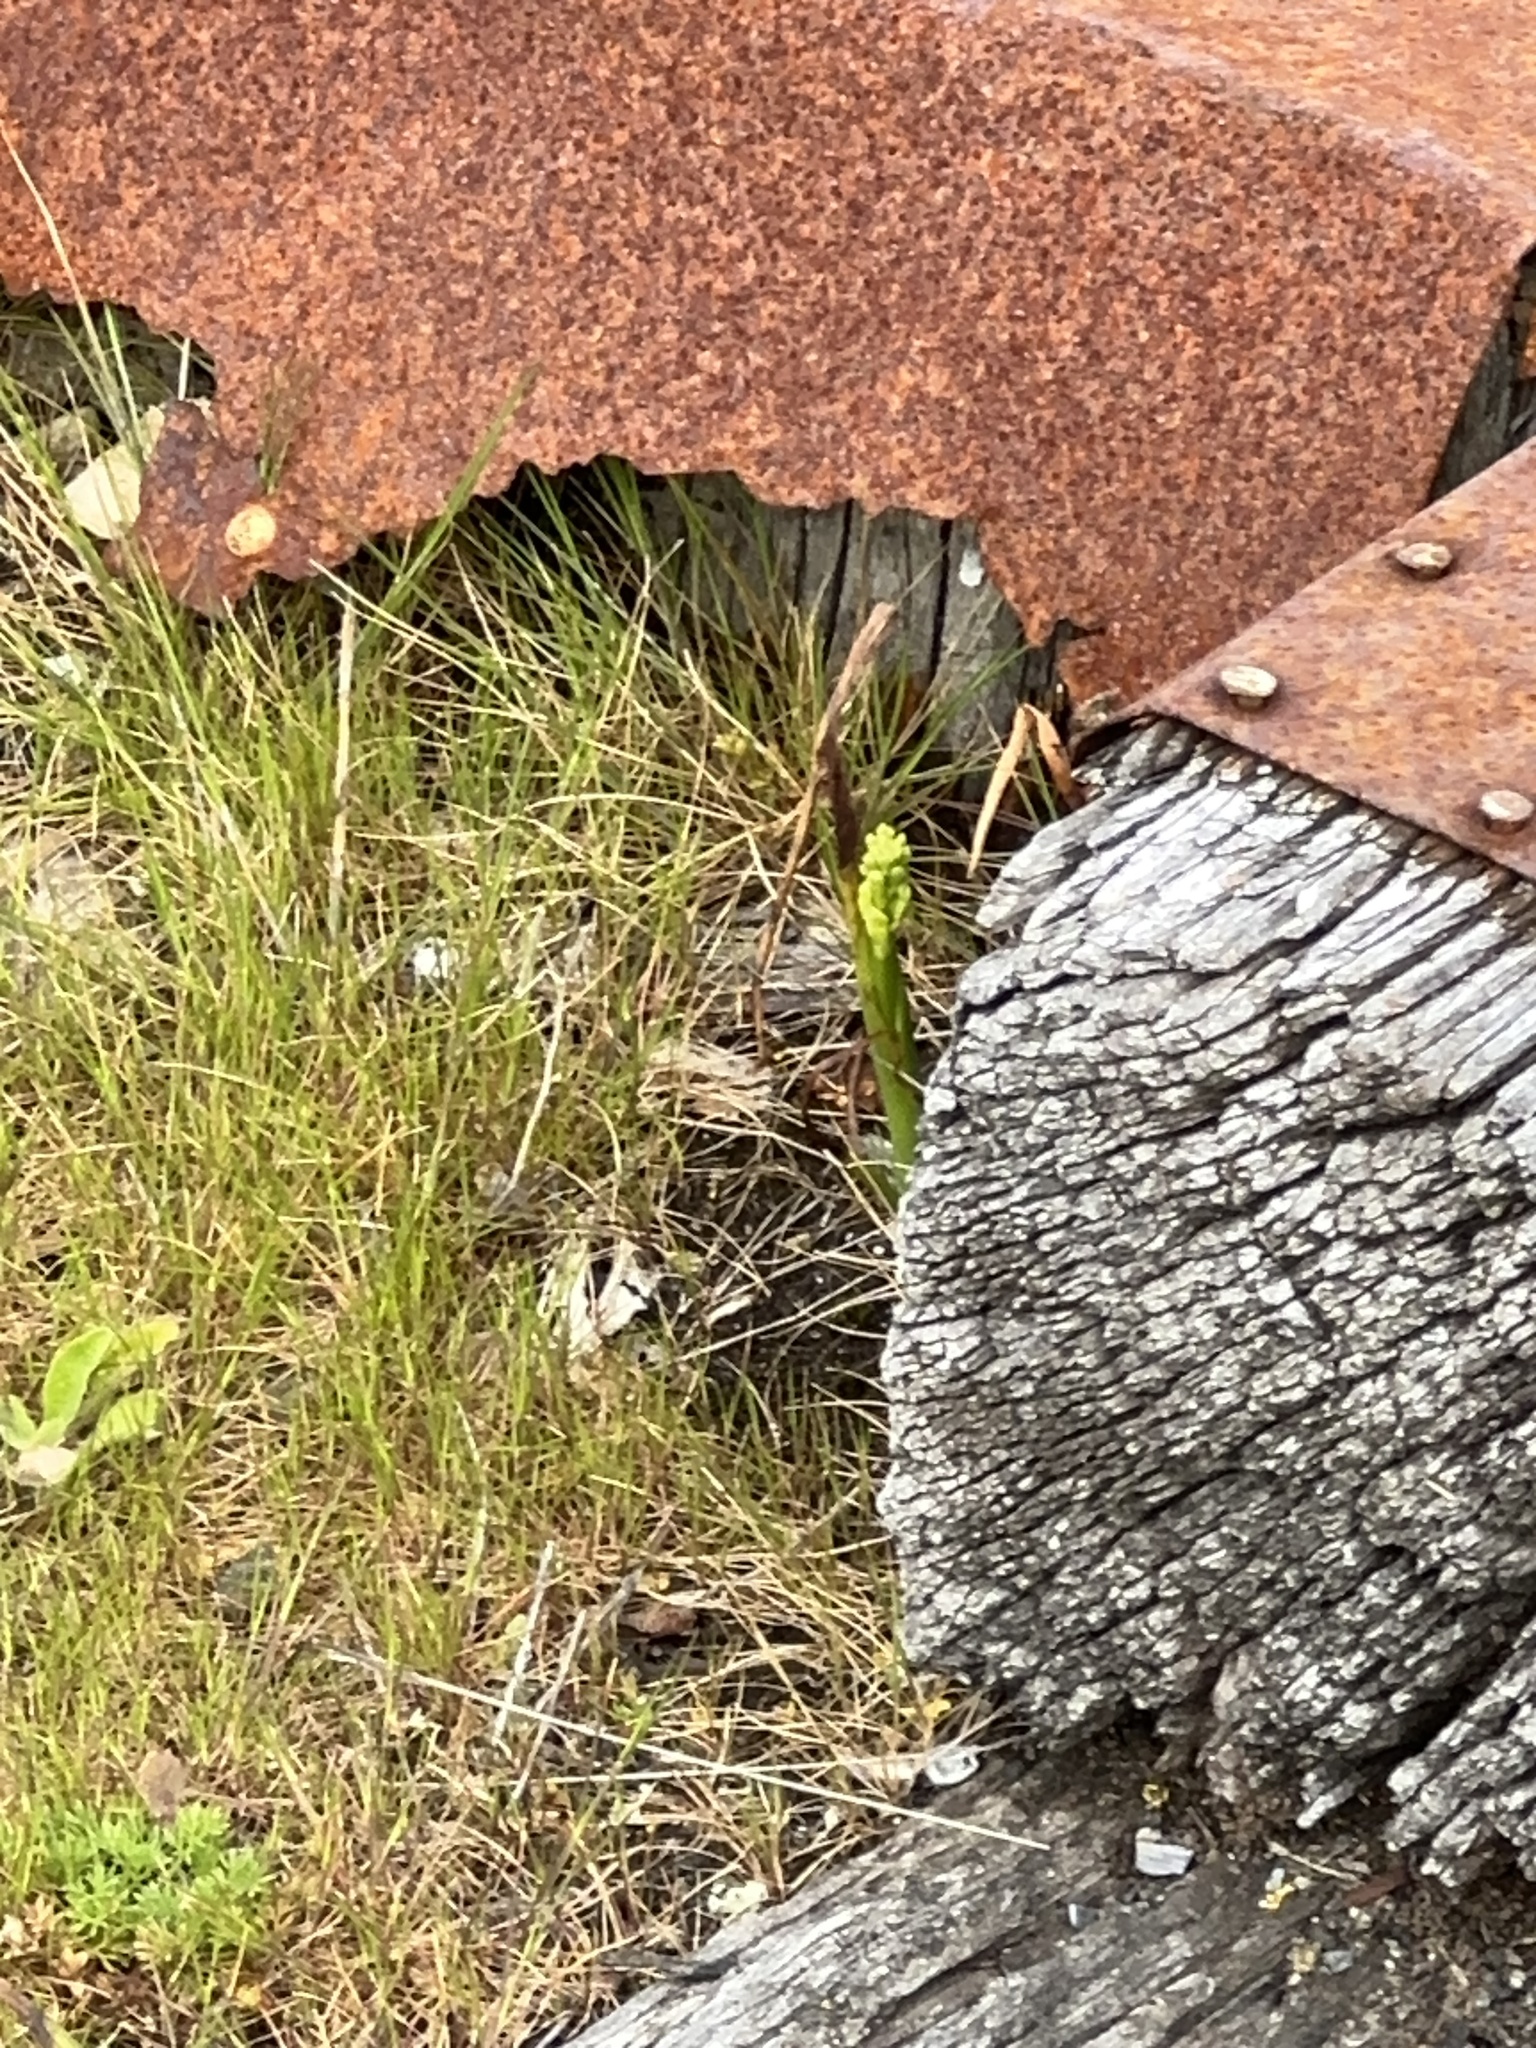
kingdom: Plantae
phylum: Tracheophyta
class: Liliopsida
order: Asparagales
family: Orchidaceae
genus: Microtis
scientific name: Microtis unifolia
